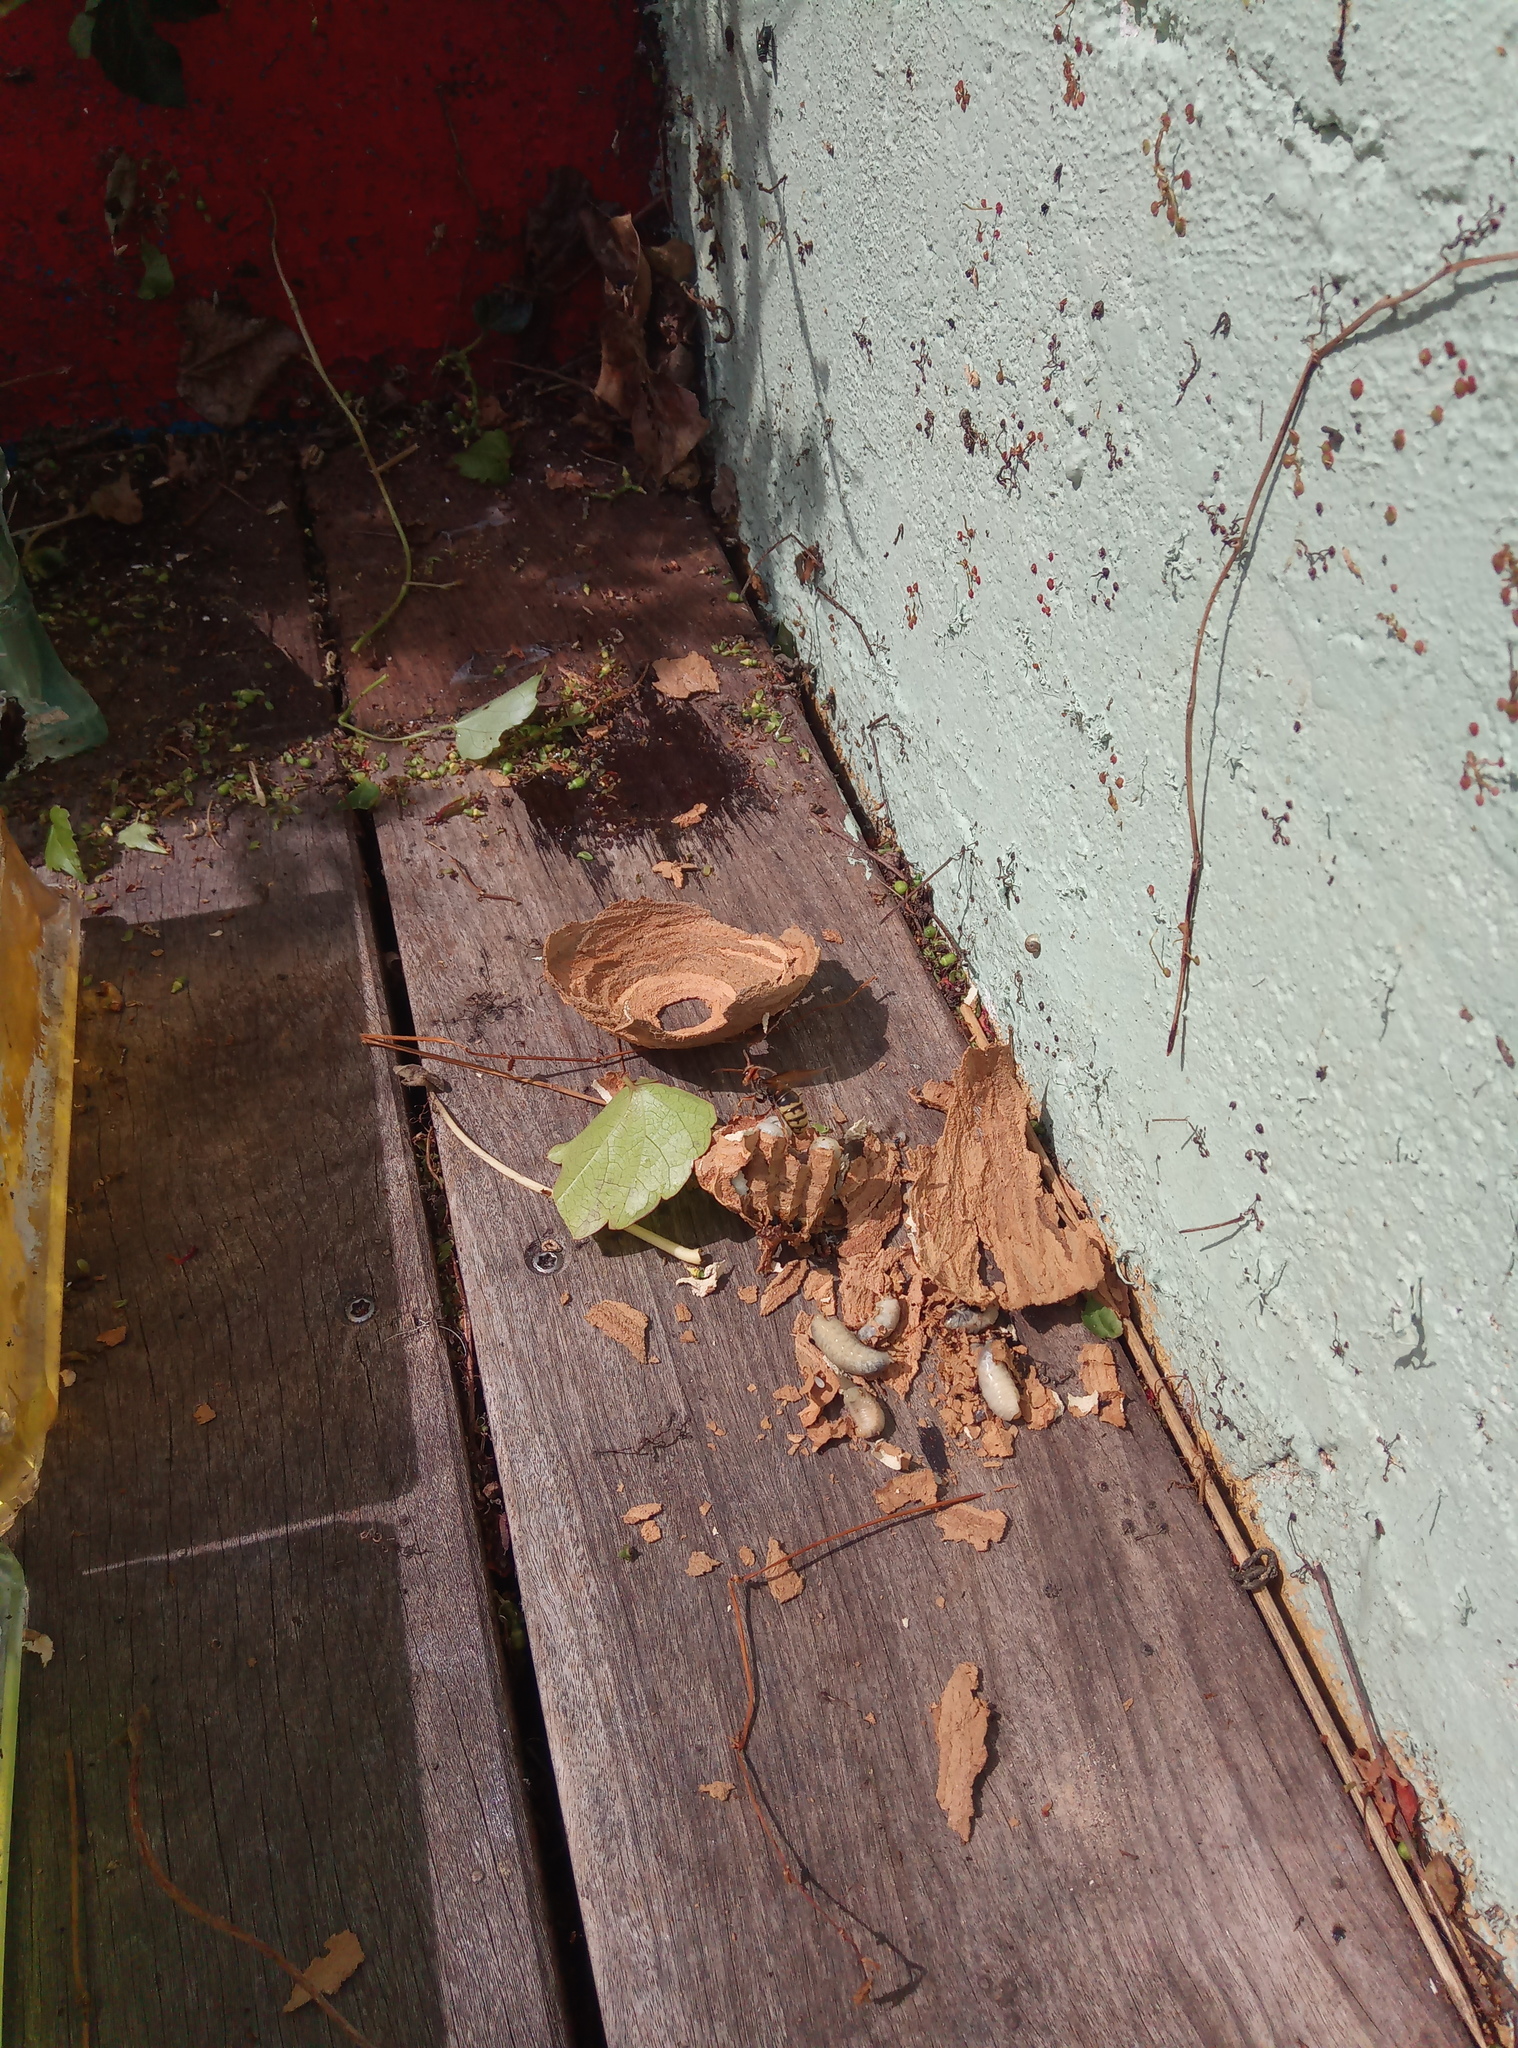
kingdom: Animalia
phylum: Arthropoda
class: Insecta
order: Hymenoptera
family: Vespidae
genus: Vespa
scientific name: Vespa crabro
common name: Hornet
